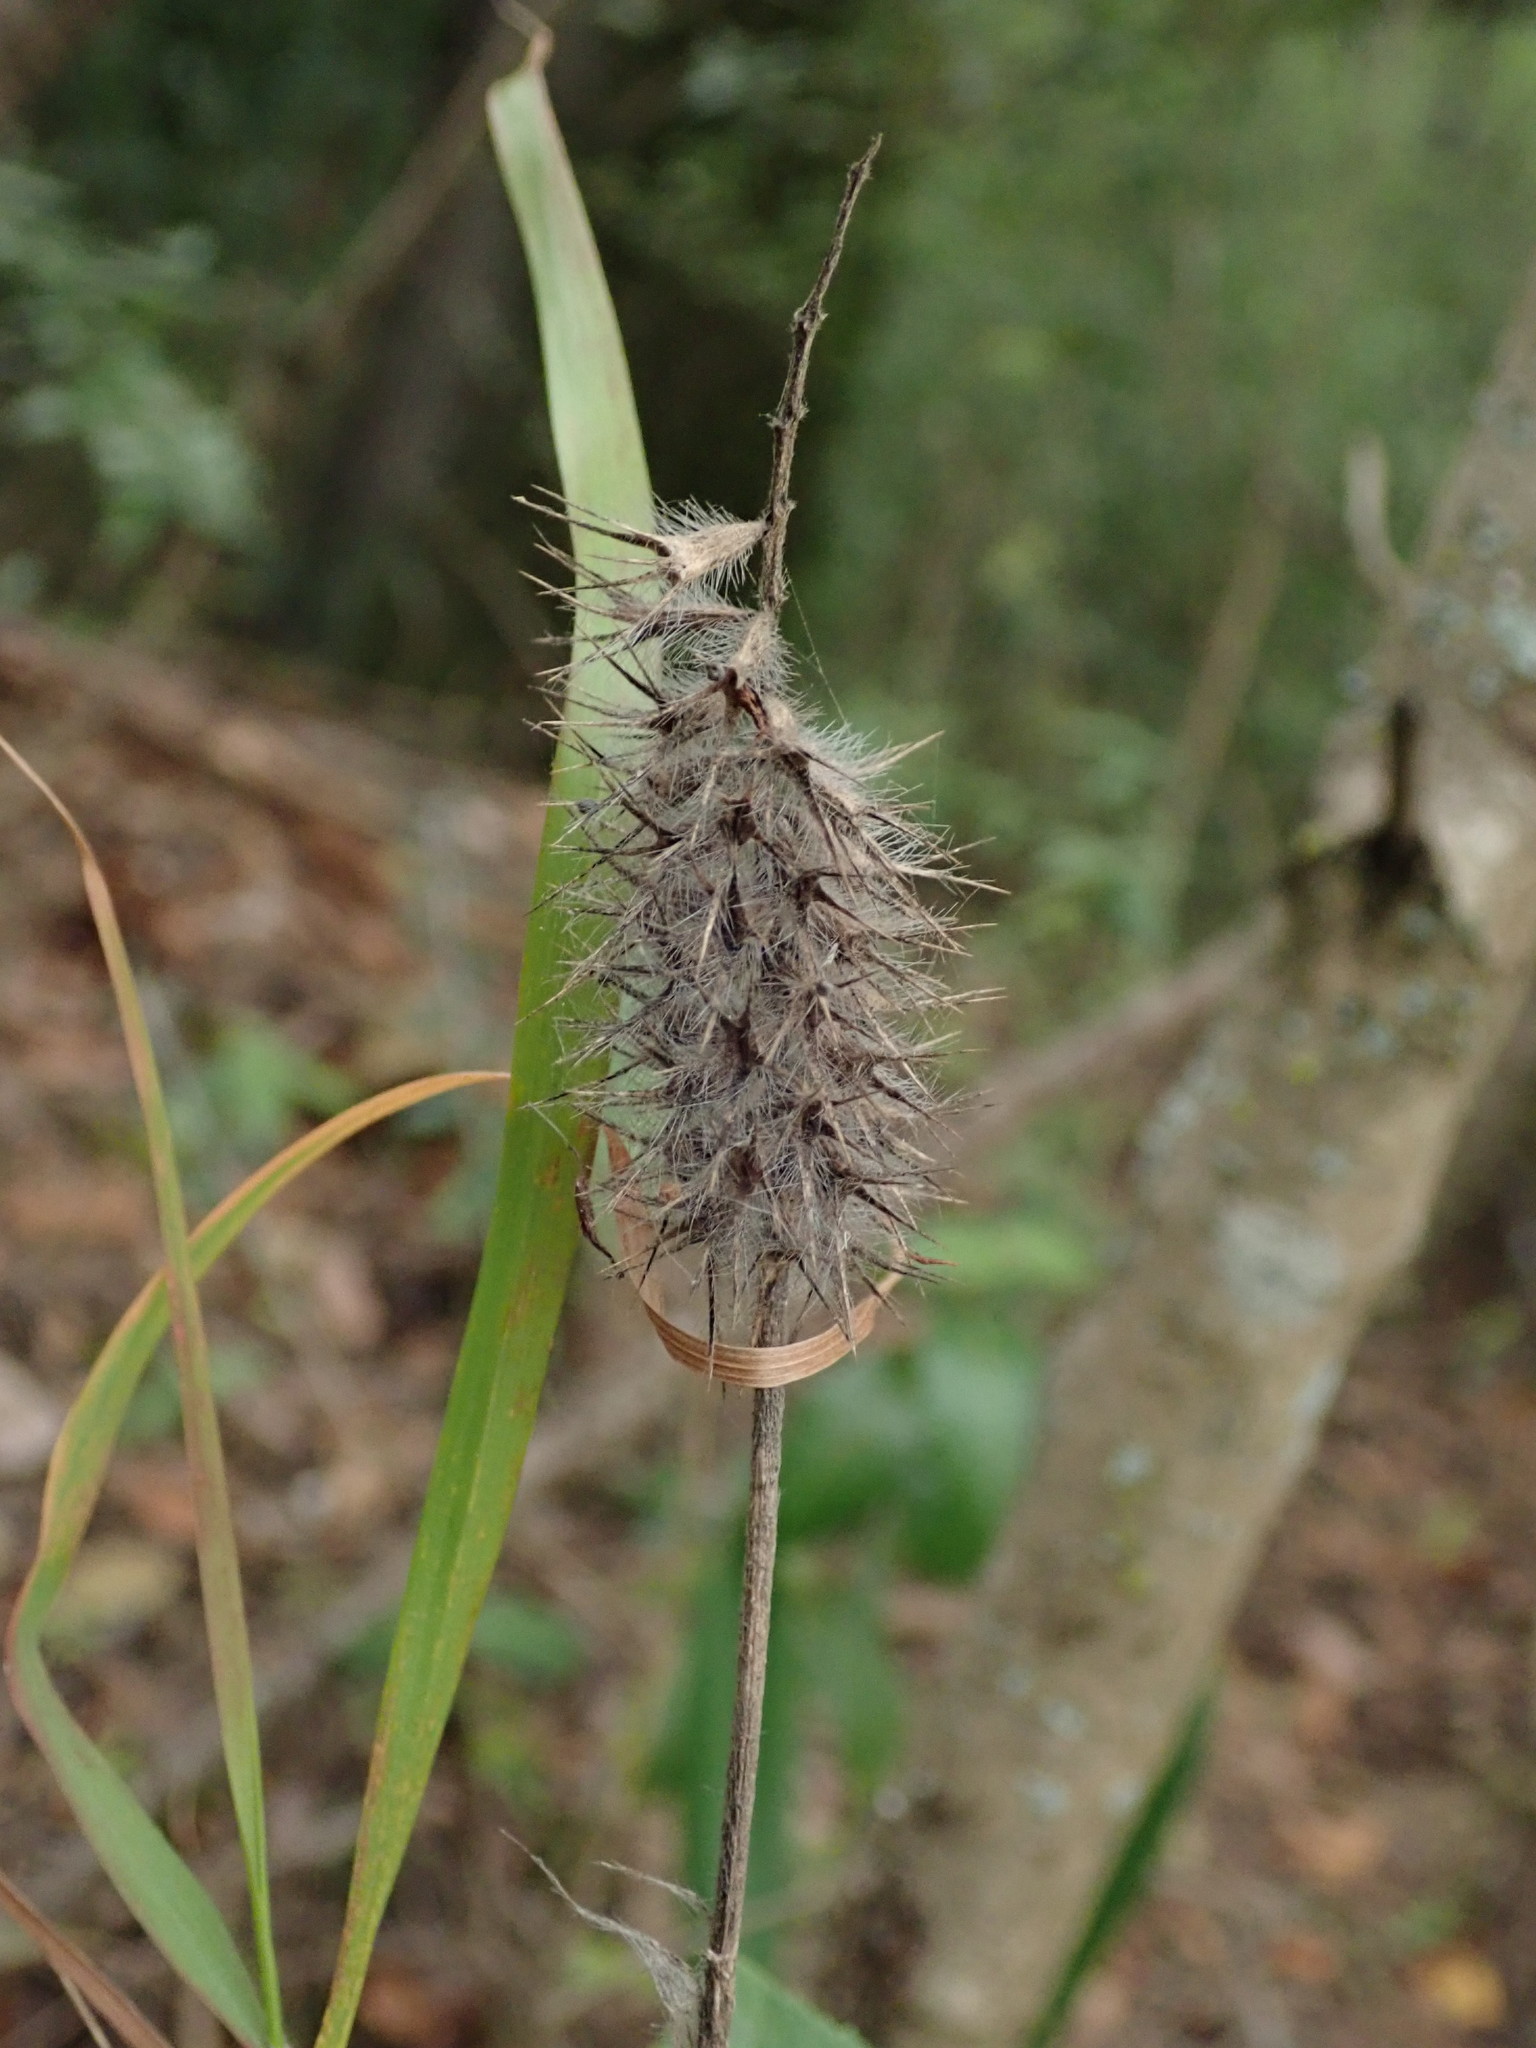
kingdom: Plantae
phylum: Tracheophyta
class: Magnoliopsida
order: Fabales
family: Fabaceae
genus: Trifolium
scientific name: Trifolium angustifolium
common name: Narrow clover
